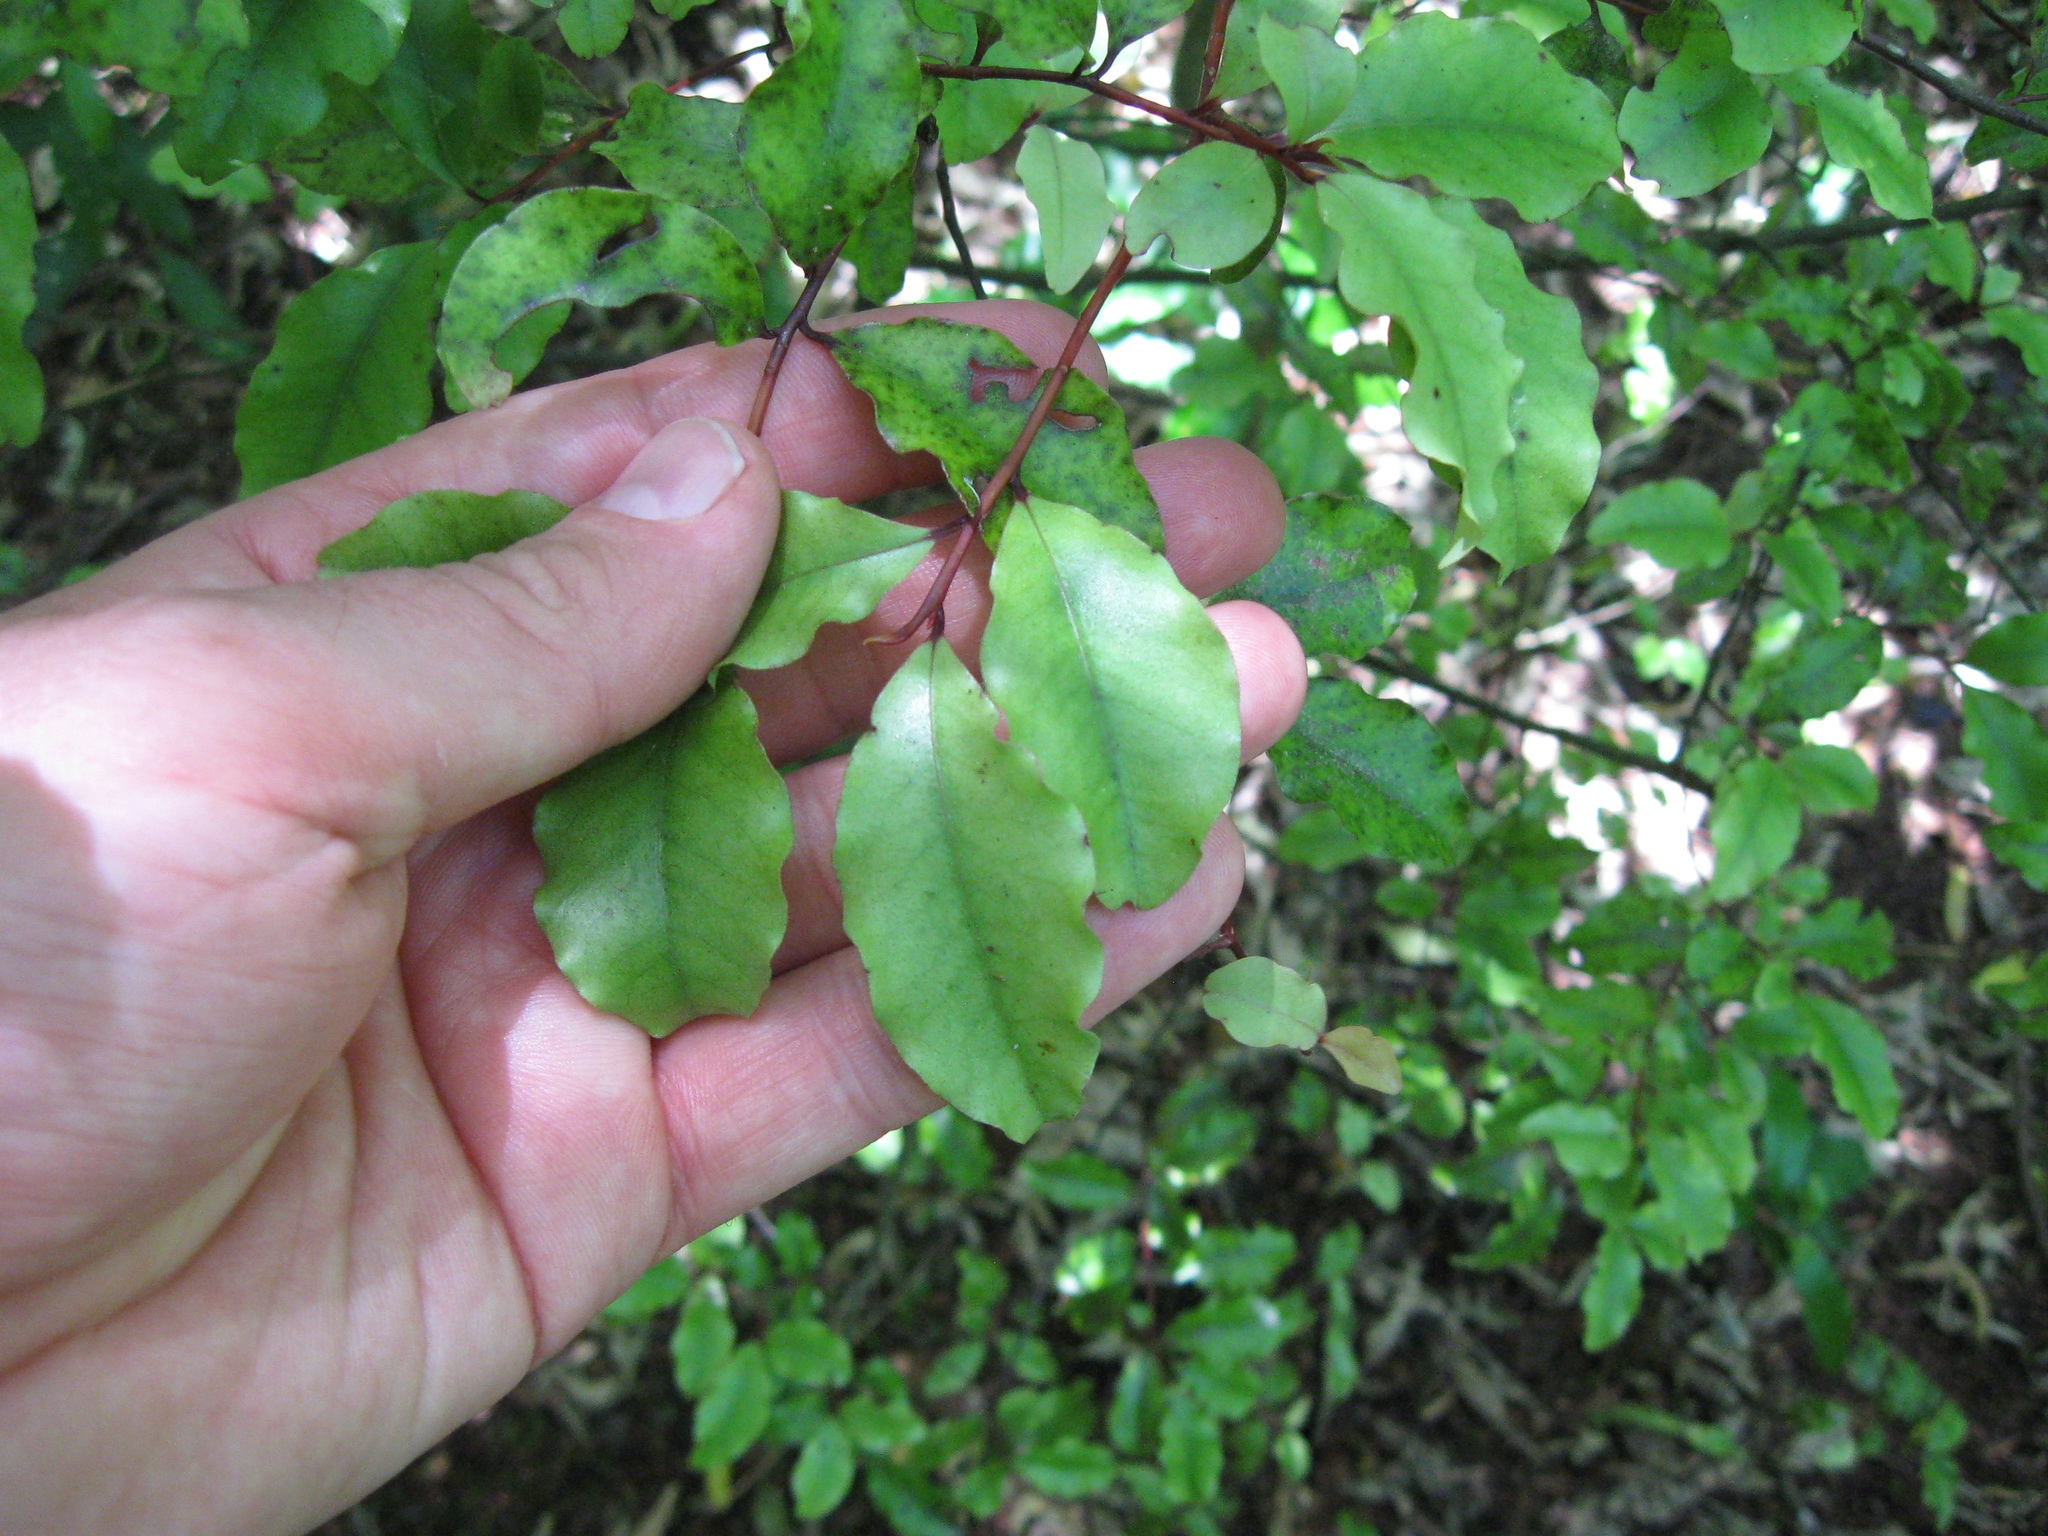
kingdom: Plantae
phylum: Tracheophyta
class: Magnoliopsida
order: Ericales
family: Primulaceae
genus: Myrsine
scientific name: Myrsine australis
